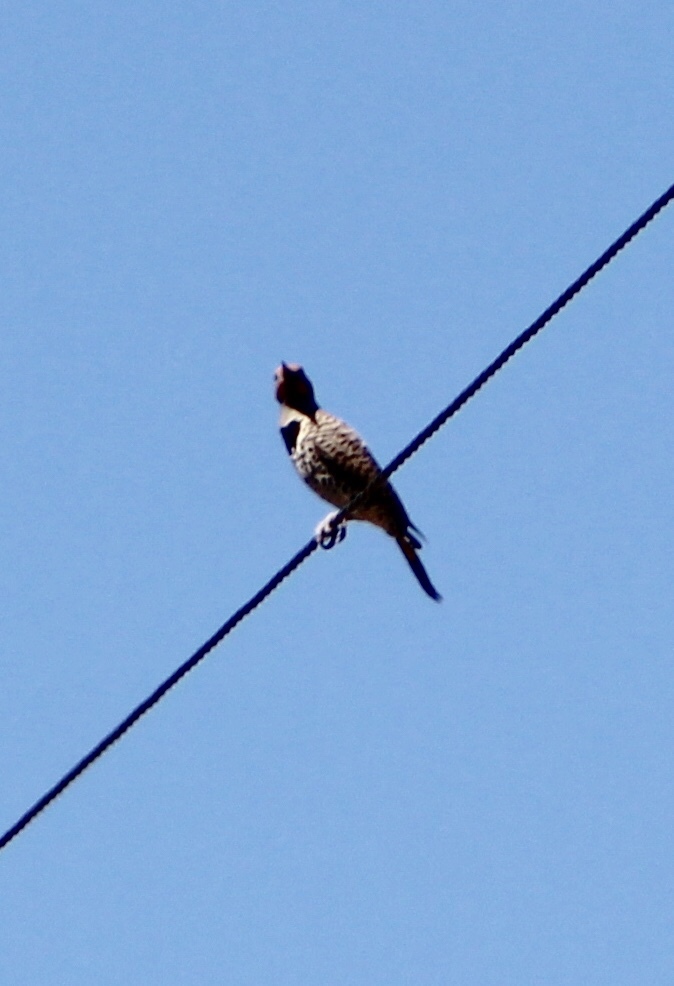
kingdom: Animalia
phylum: Chordata
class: Aves
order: Piciformes
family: Picidae
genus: Colaptes
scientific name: Colaptes chrysoides
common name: Gilded flicker
